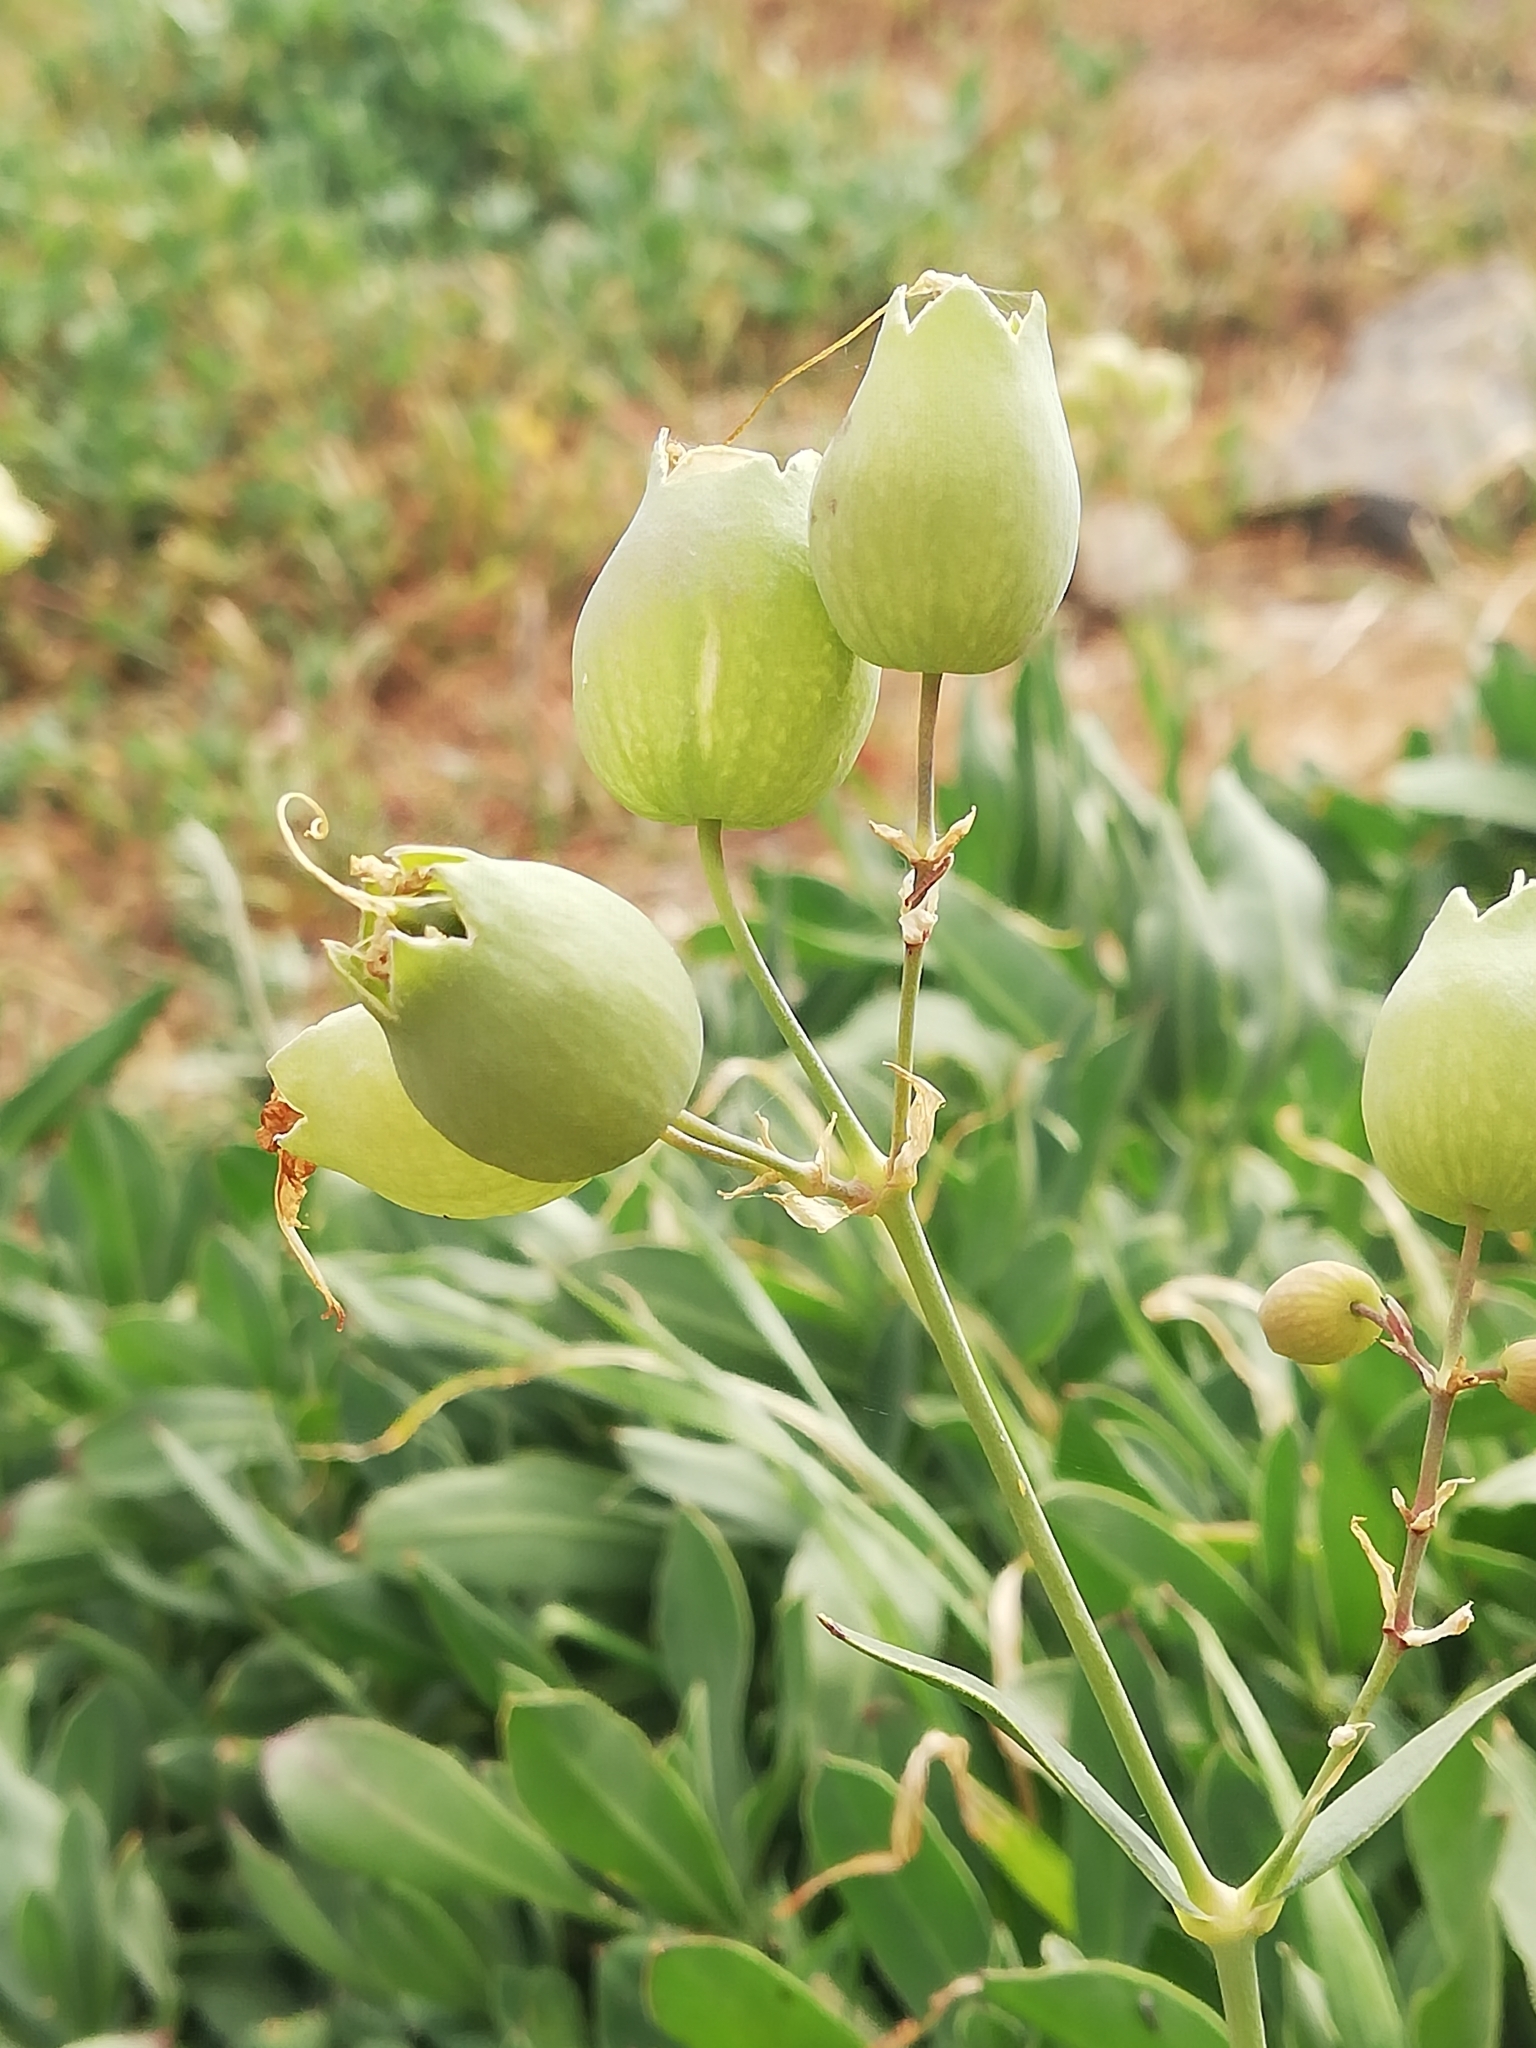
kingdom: Plantae
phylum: Tracheophyta
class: Magnoliopsida
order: Caryophyllales
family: Caryophyllaceae
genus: Silene
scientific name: Silene vulgaris
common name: Bladder campion
